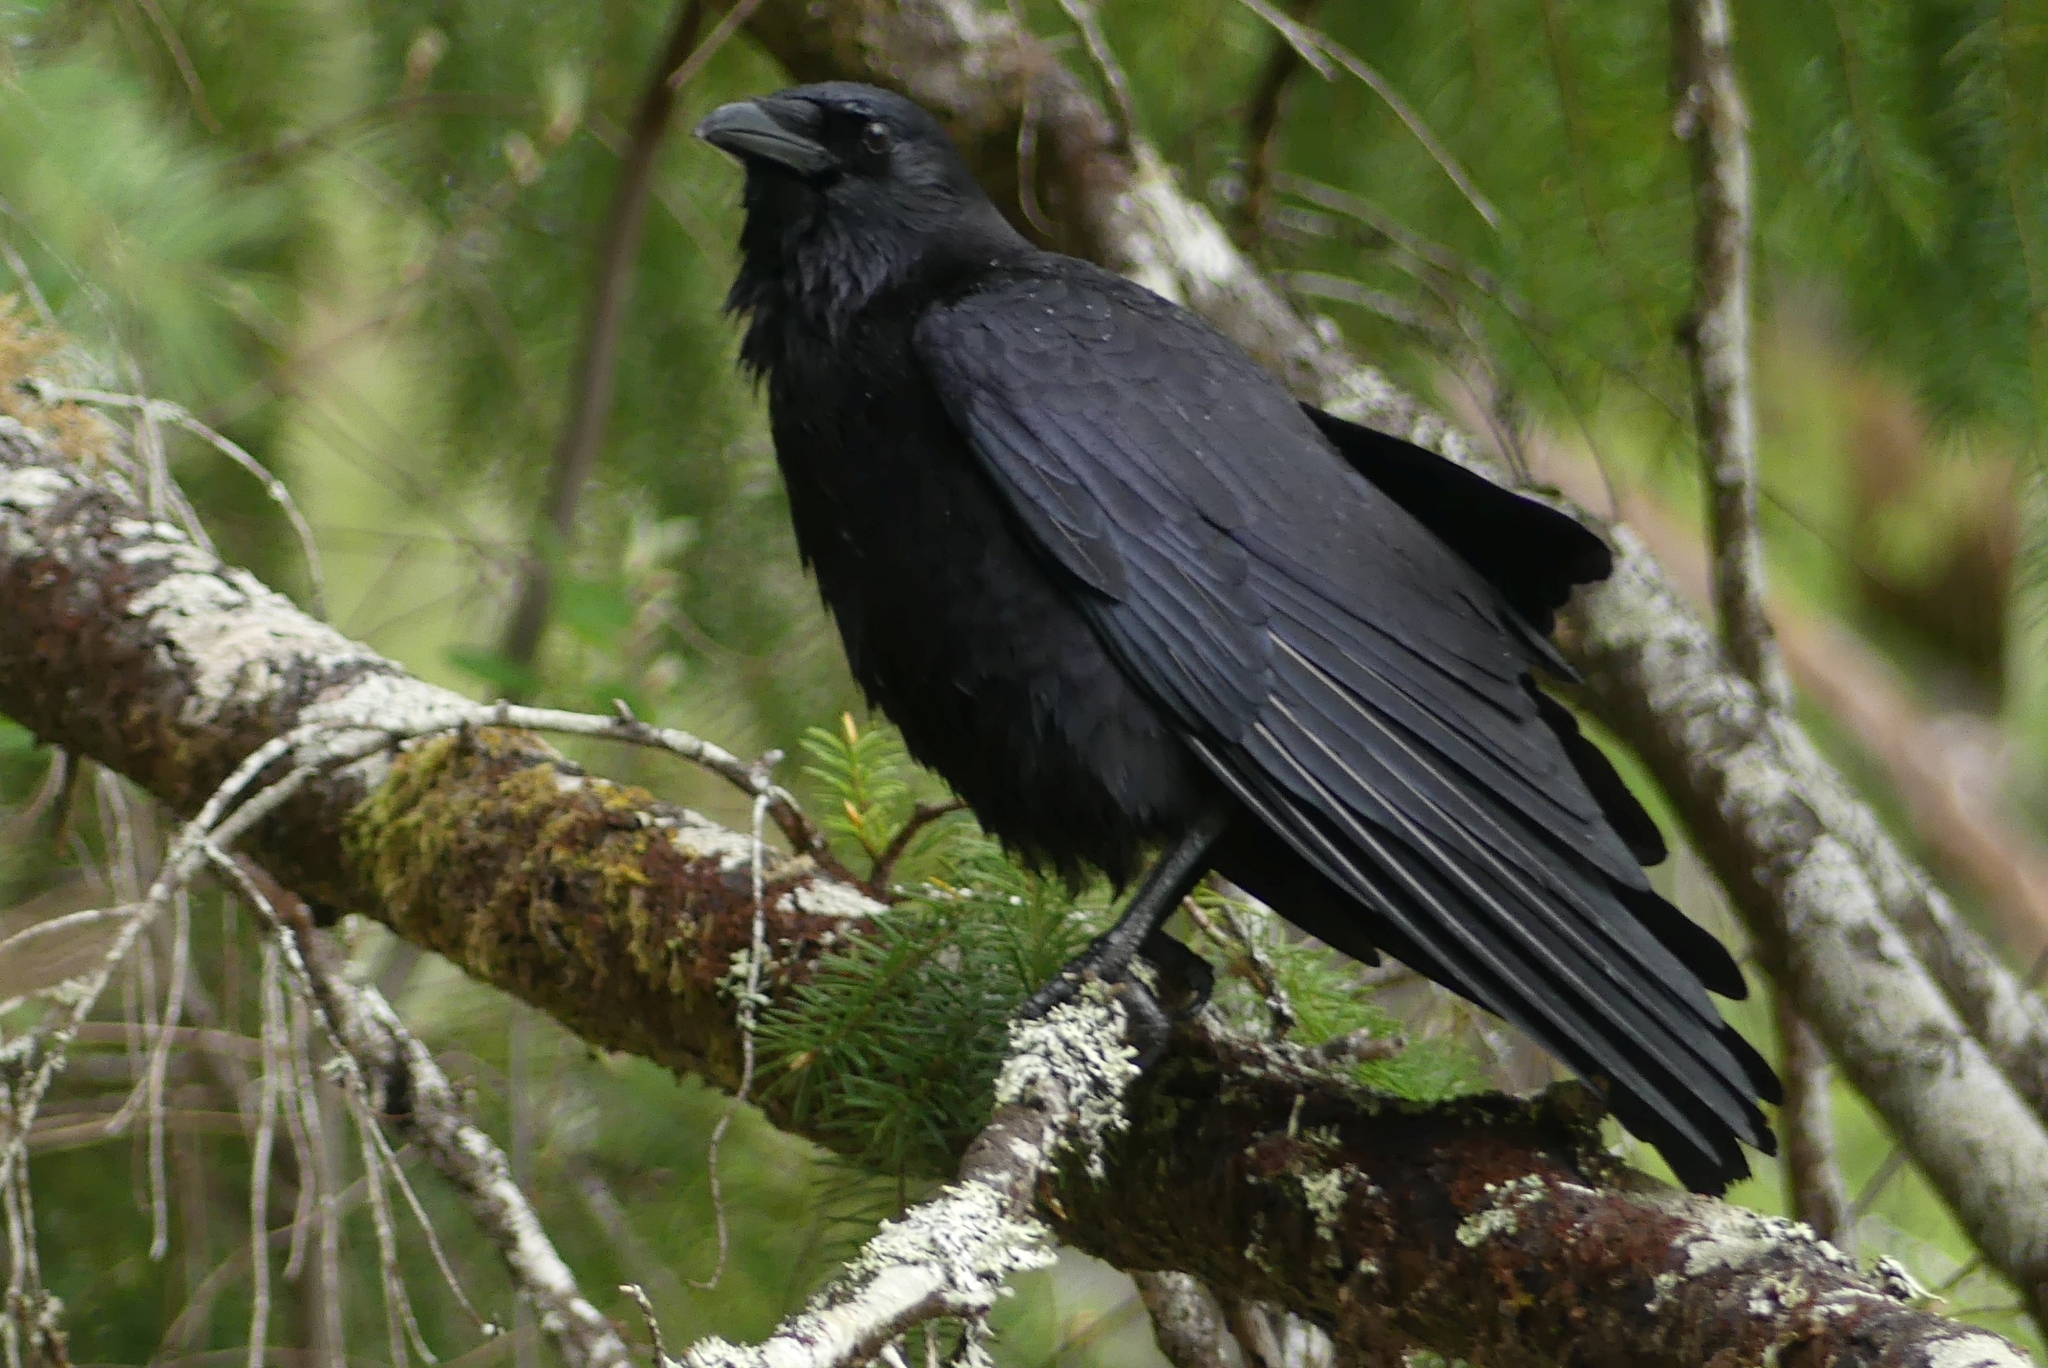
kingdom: Animalia
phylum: Chordata
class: Aves
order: Passeriformes
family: Corvidae
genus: Corvus
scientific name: Corvus brachyrhynchos
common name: American crow
